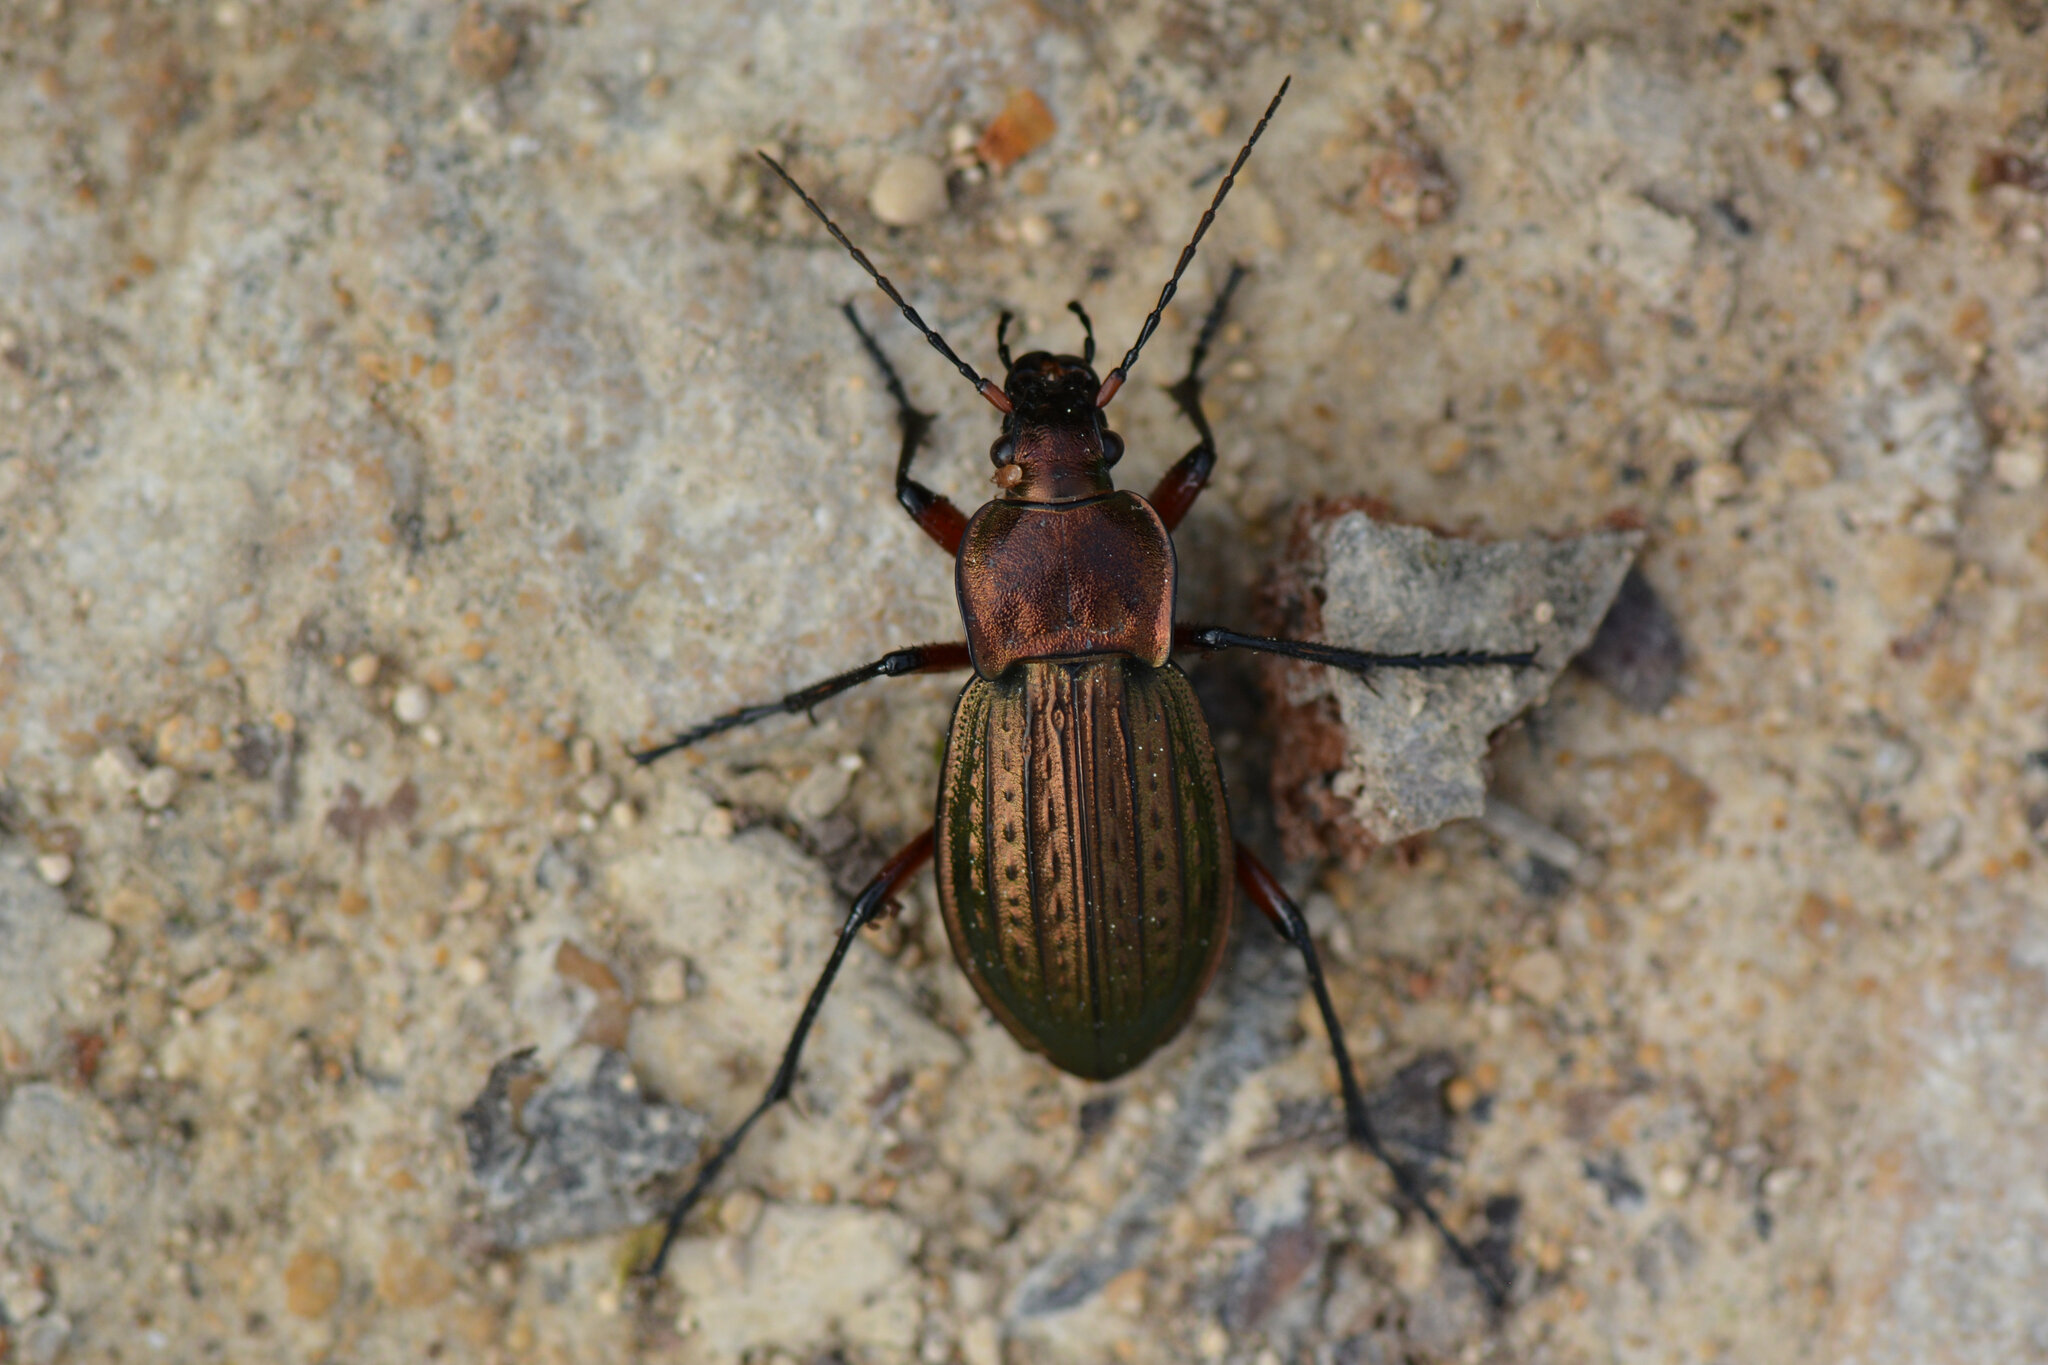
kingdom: Animalia
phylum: Arthropoda
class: Insecta
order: Coleoptera
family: Carabidae
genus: Carabus
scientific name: Carabus cancellatus
